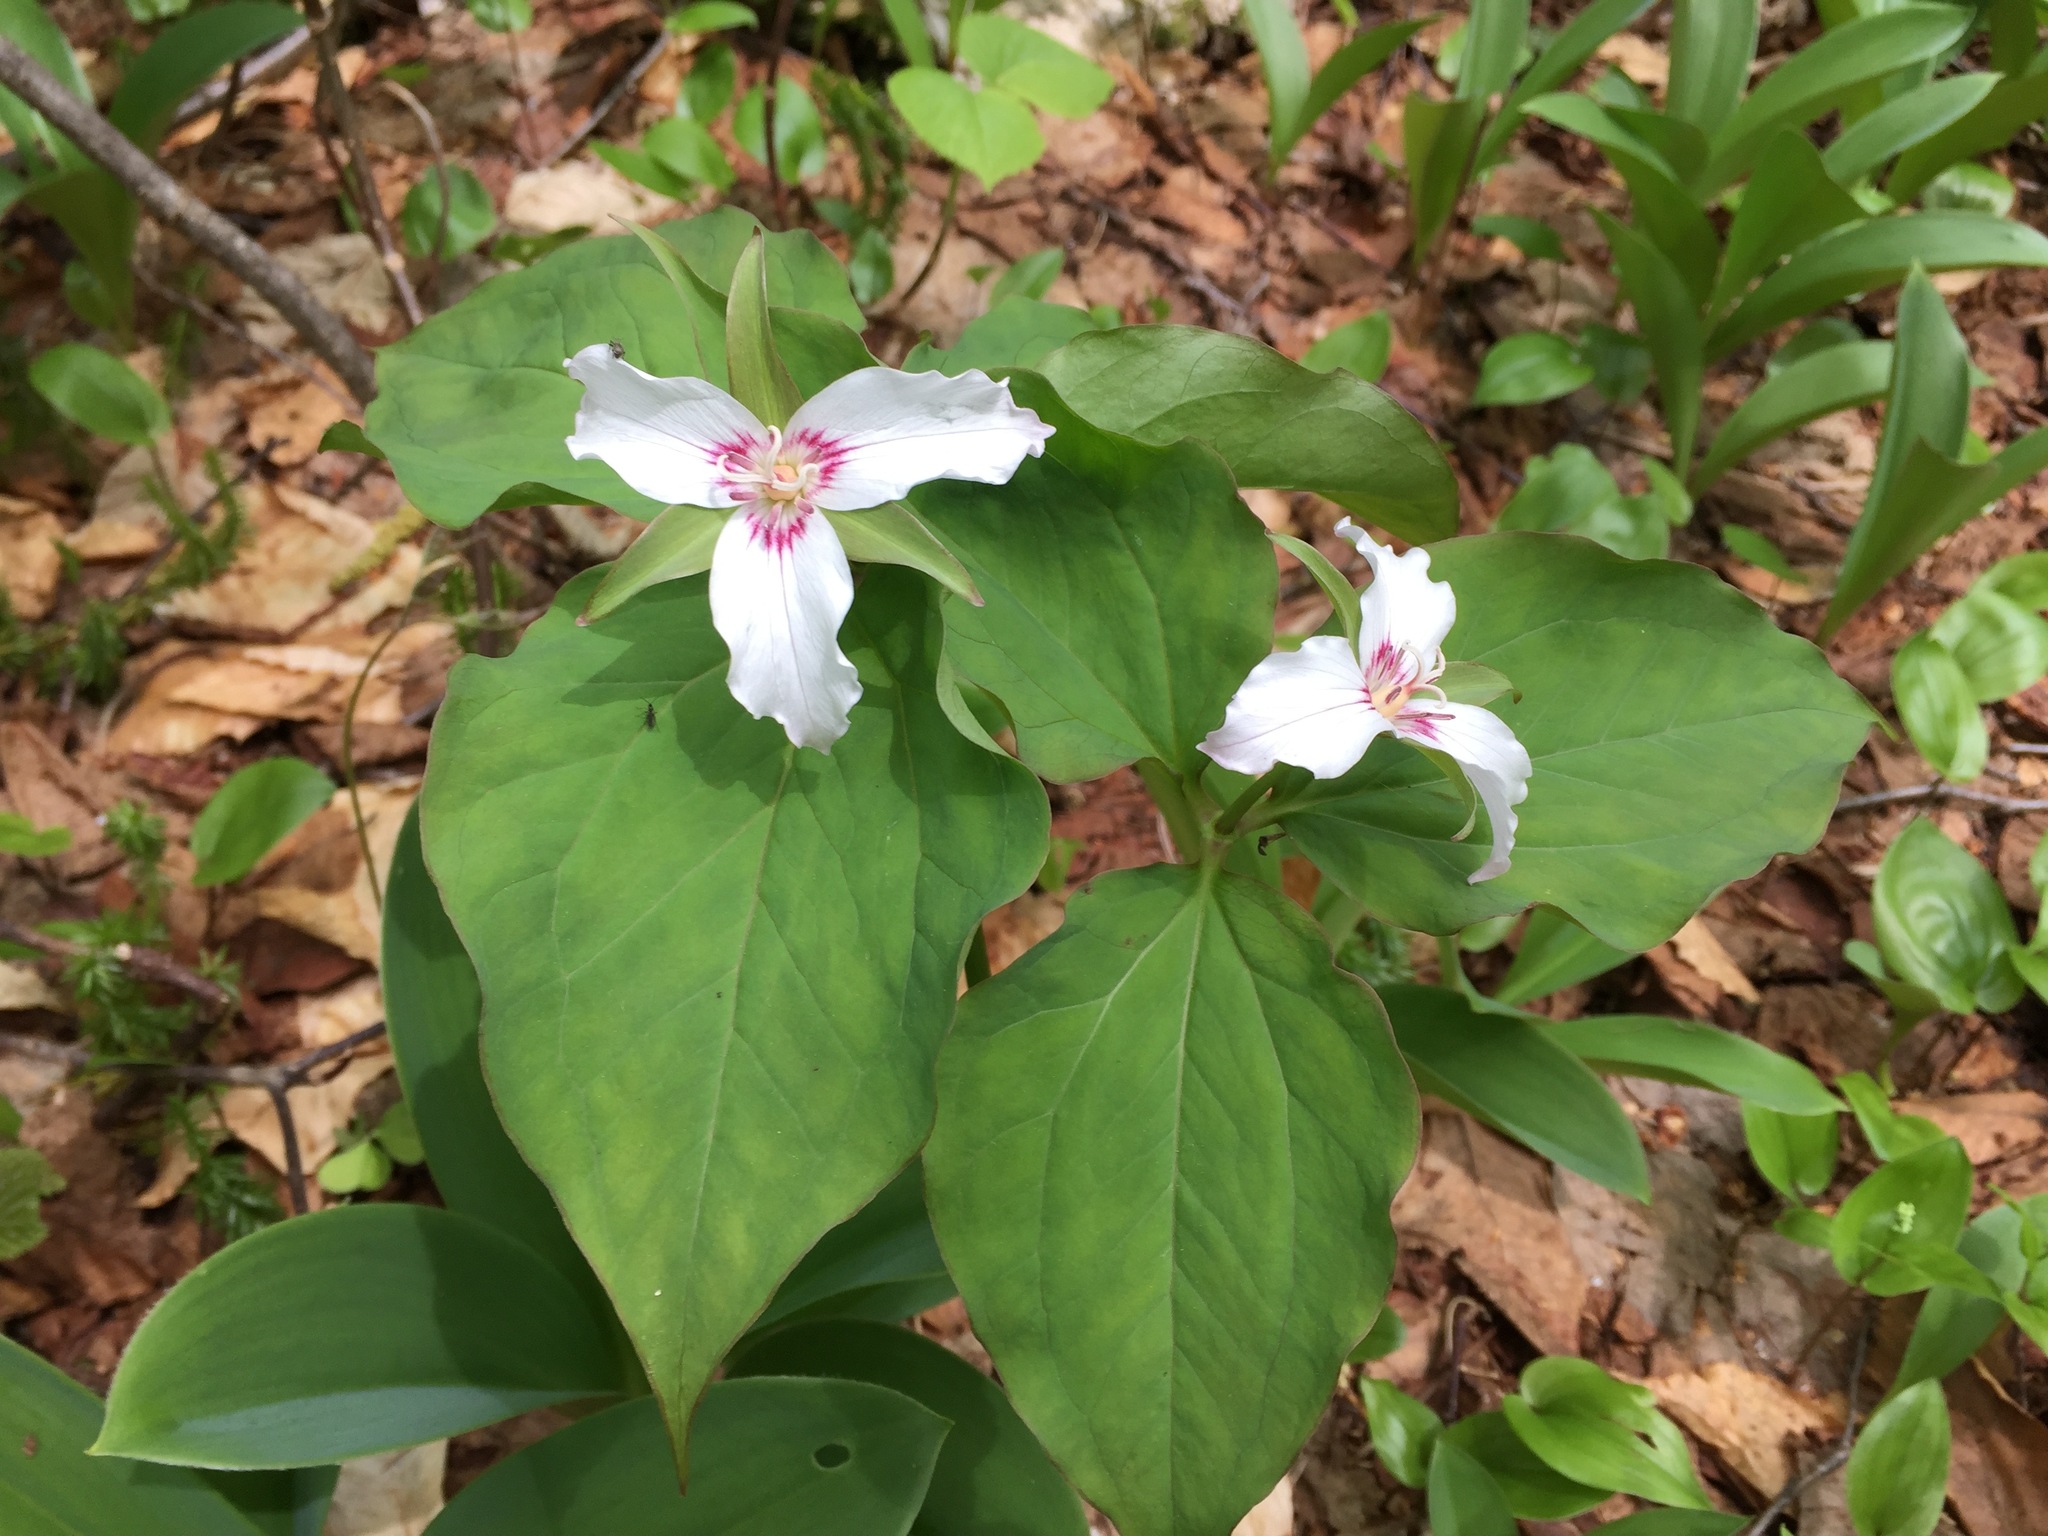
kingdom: Plantae
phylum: Tracheophyta
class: Liliopsida
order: Liliales
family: Melanthiaceae
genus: Trillium
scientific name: Trillium undulatum
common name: Paint trillium
